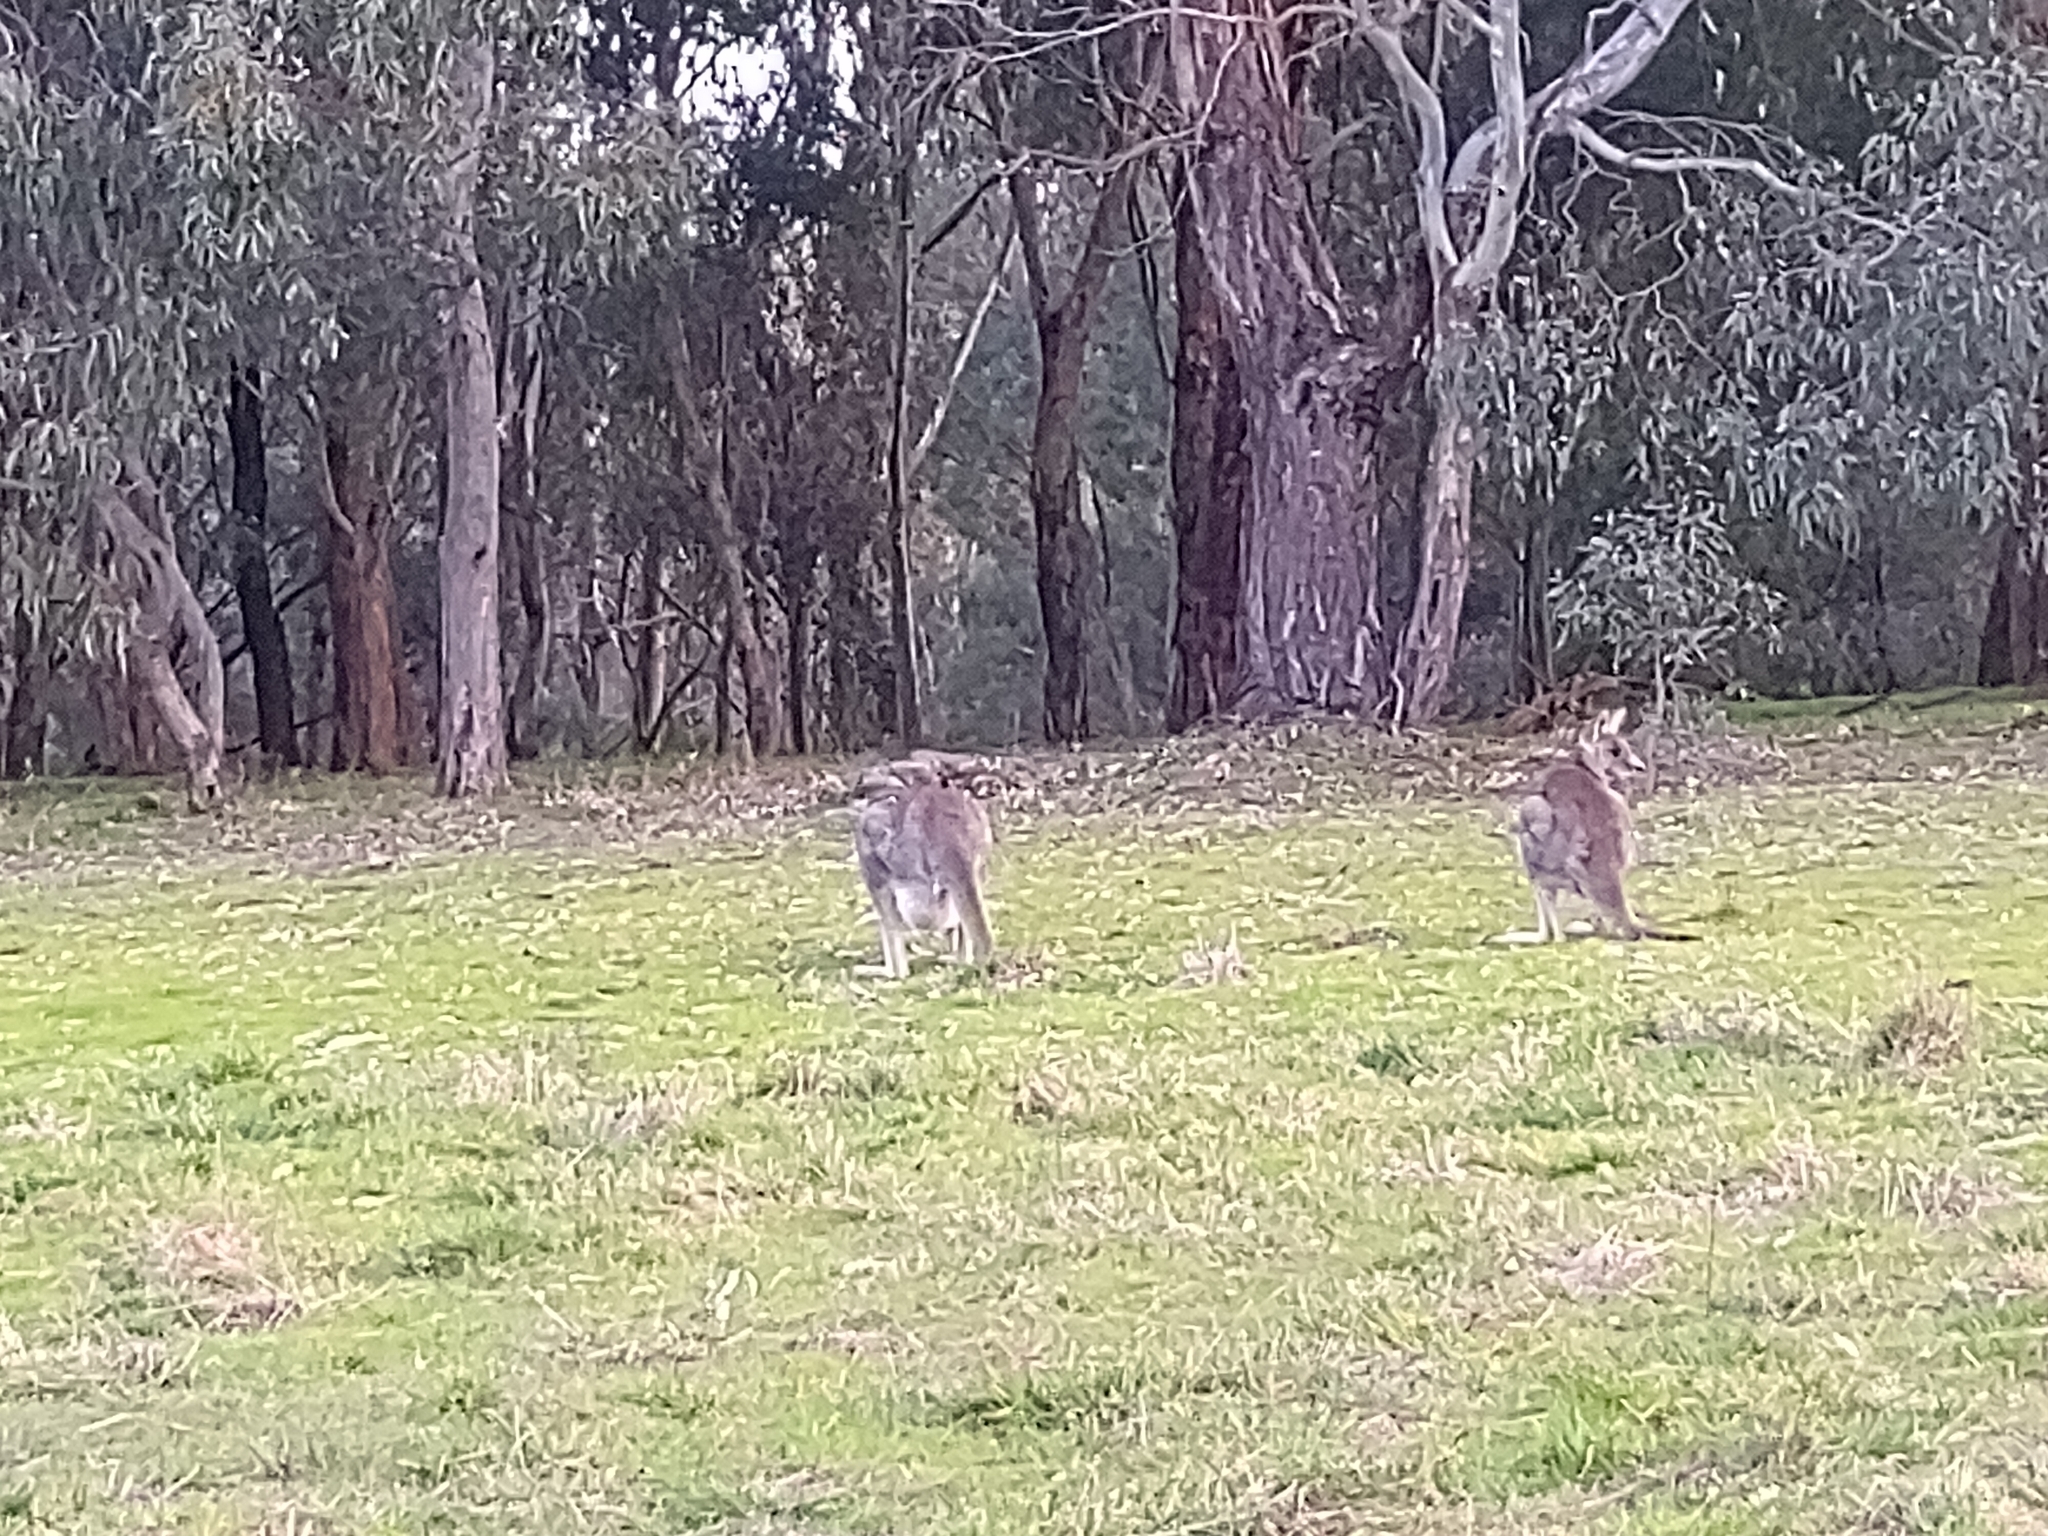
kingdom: Animalia
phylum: Chordata
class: Mammalia
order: Diprotodontia
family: Macropodidae
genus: Macropus
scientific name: Macropus giganteus
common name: Eastern grey kangaroo
